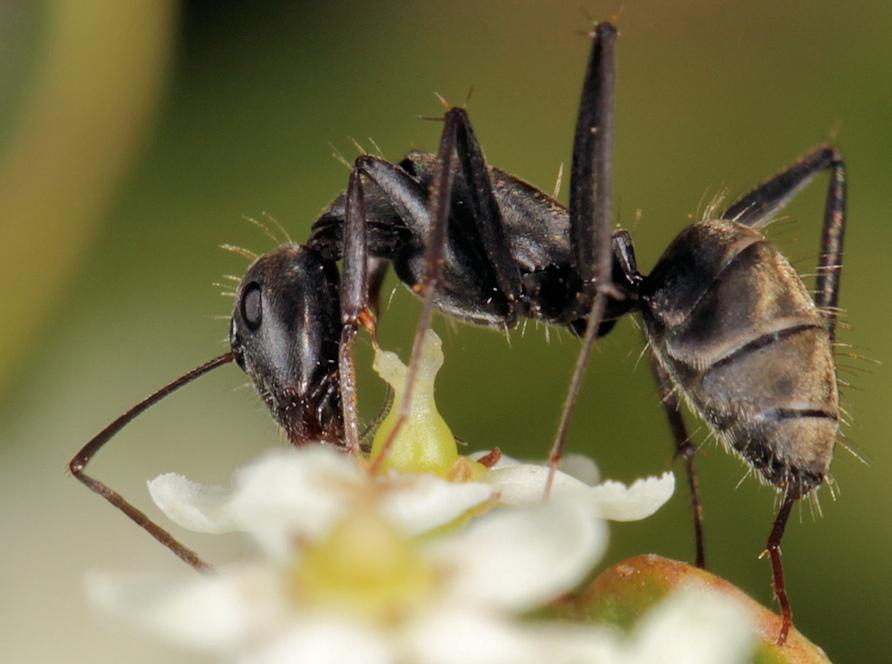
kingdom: Animalia
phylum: Arthropoda
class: Insecta
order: Hymenoptera
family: Formicidae
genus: Camponotus
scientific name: Camponotus cinctellus
